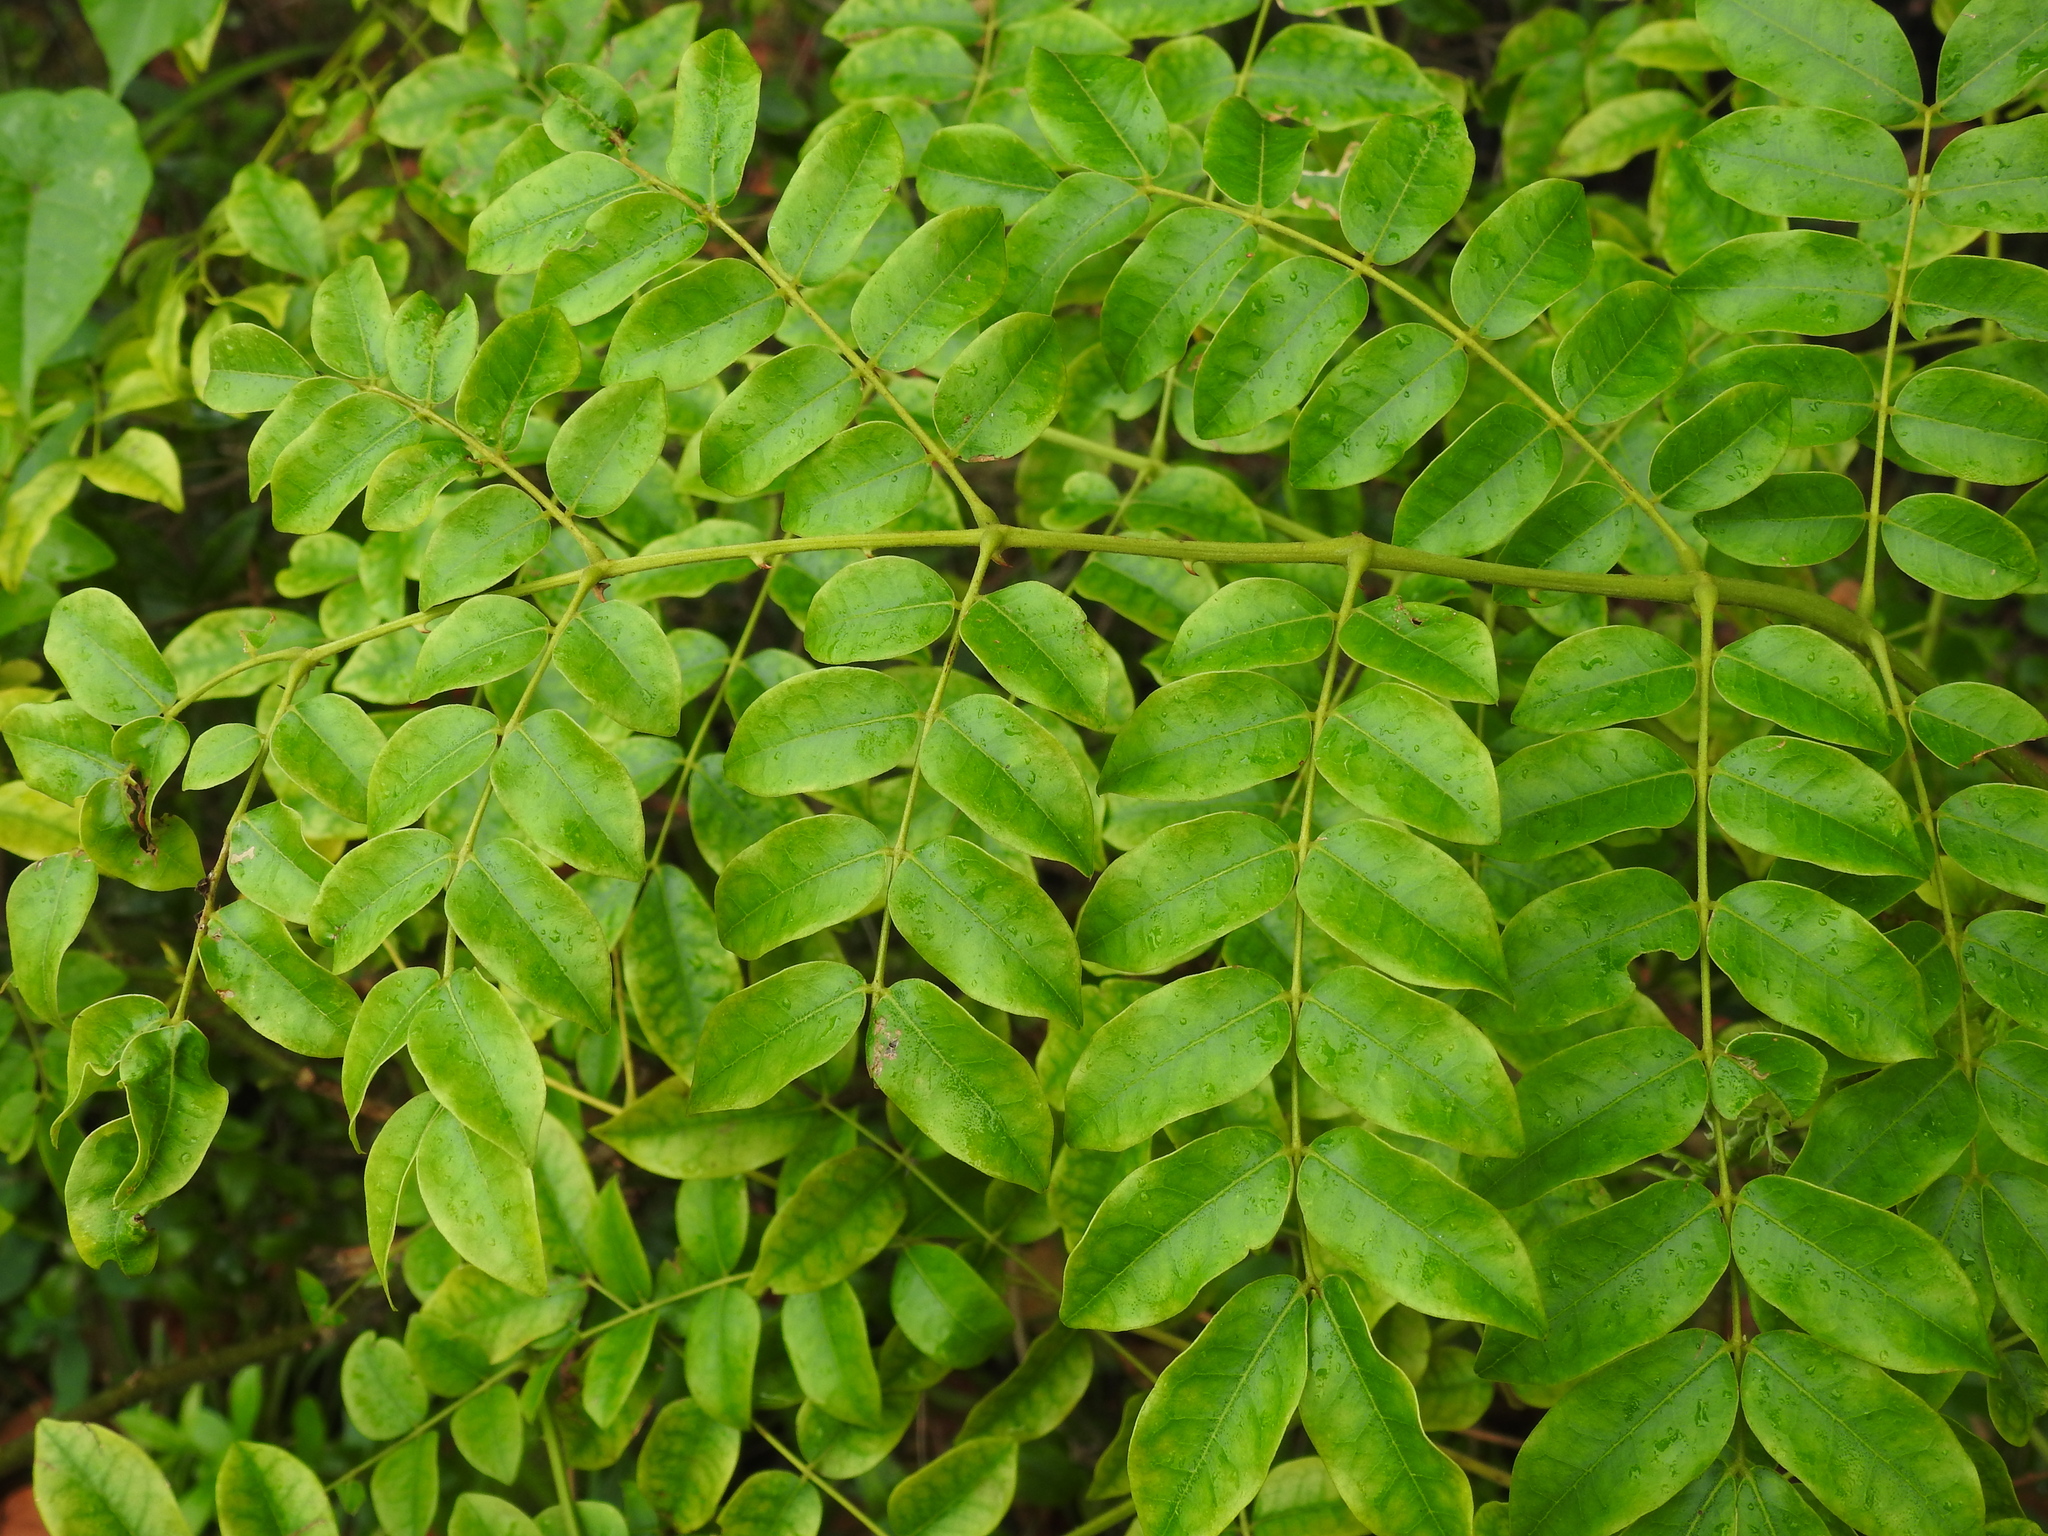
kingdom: Plantae
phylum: Tracheophyta
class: Magnoliopsida
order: Fabales
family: Fabaceae
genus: Guilandina
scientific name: Guilandina bonduc
